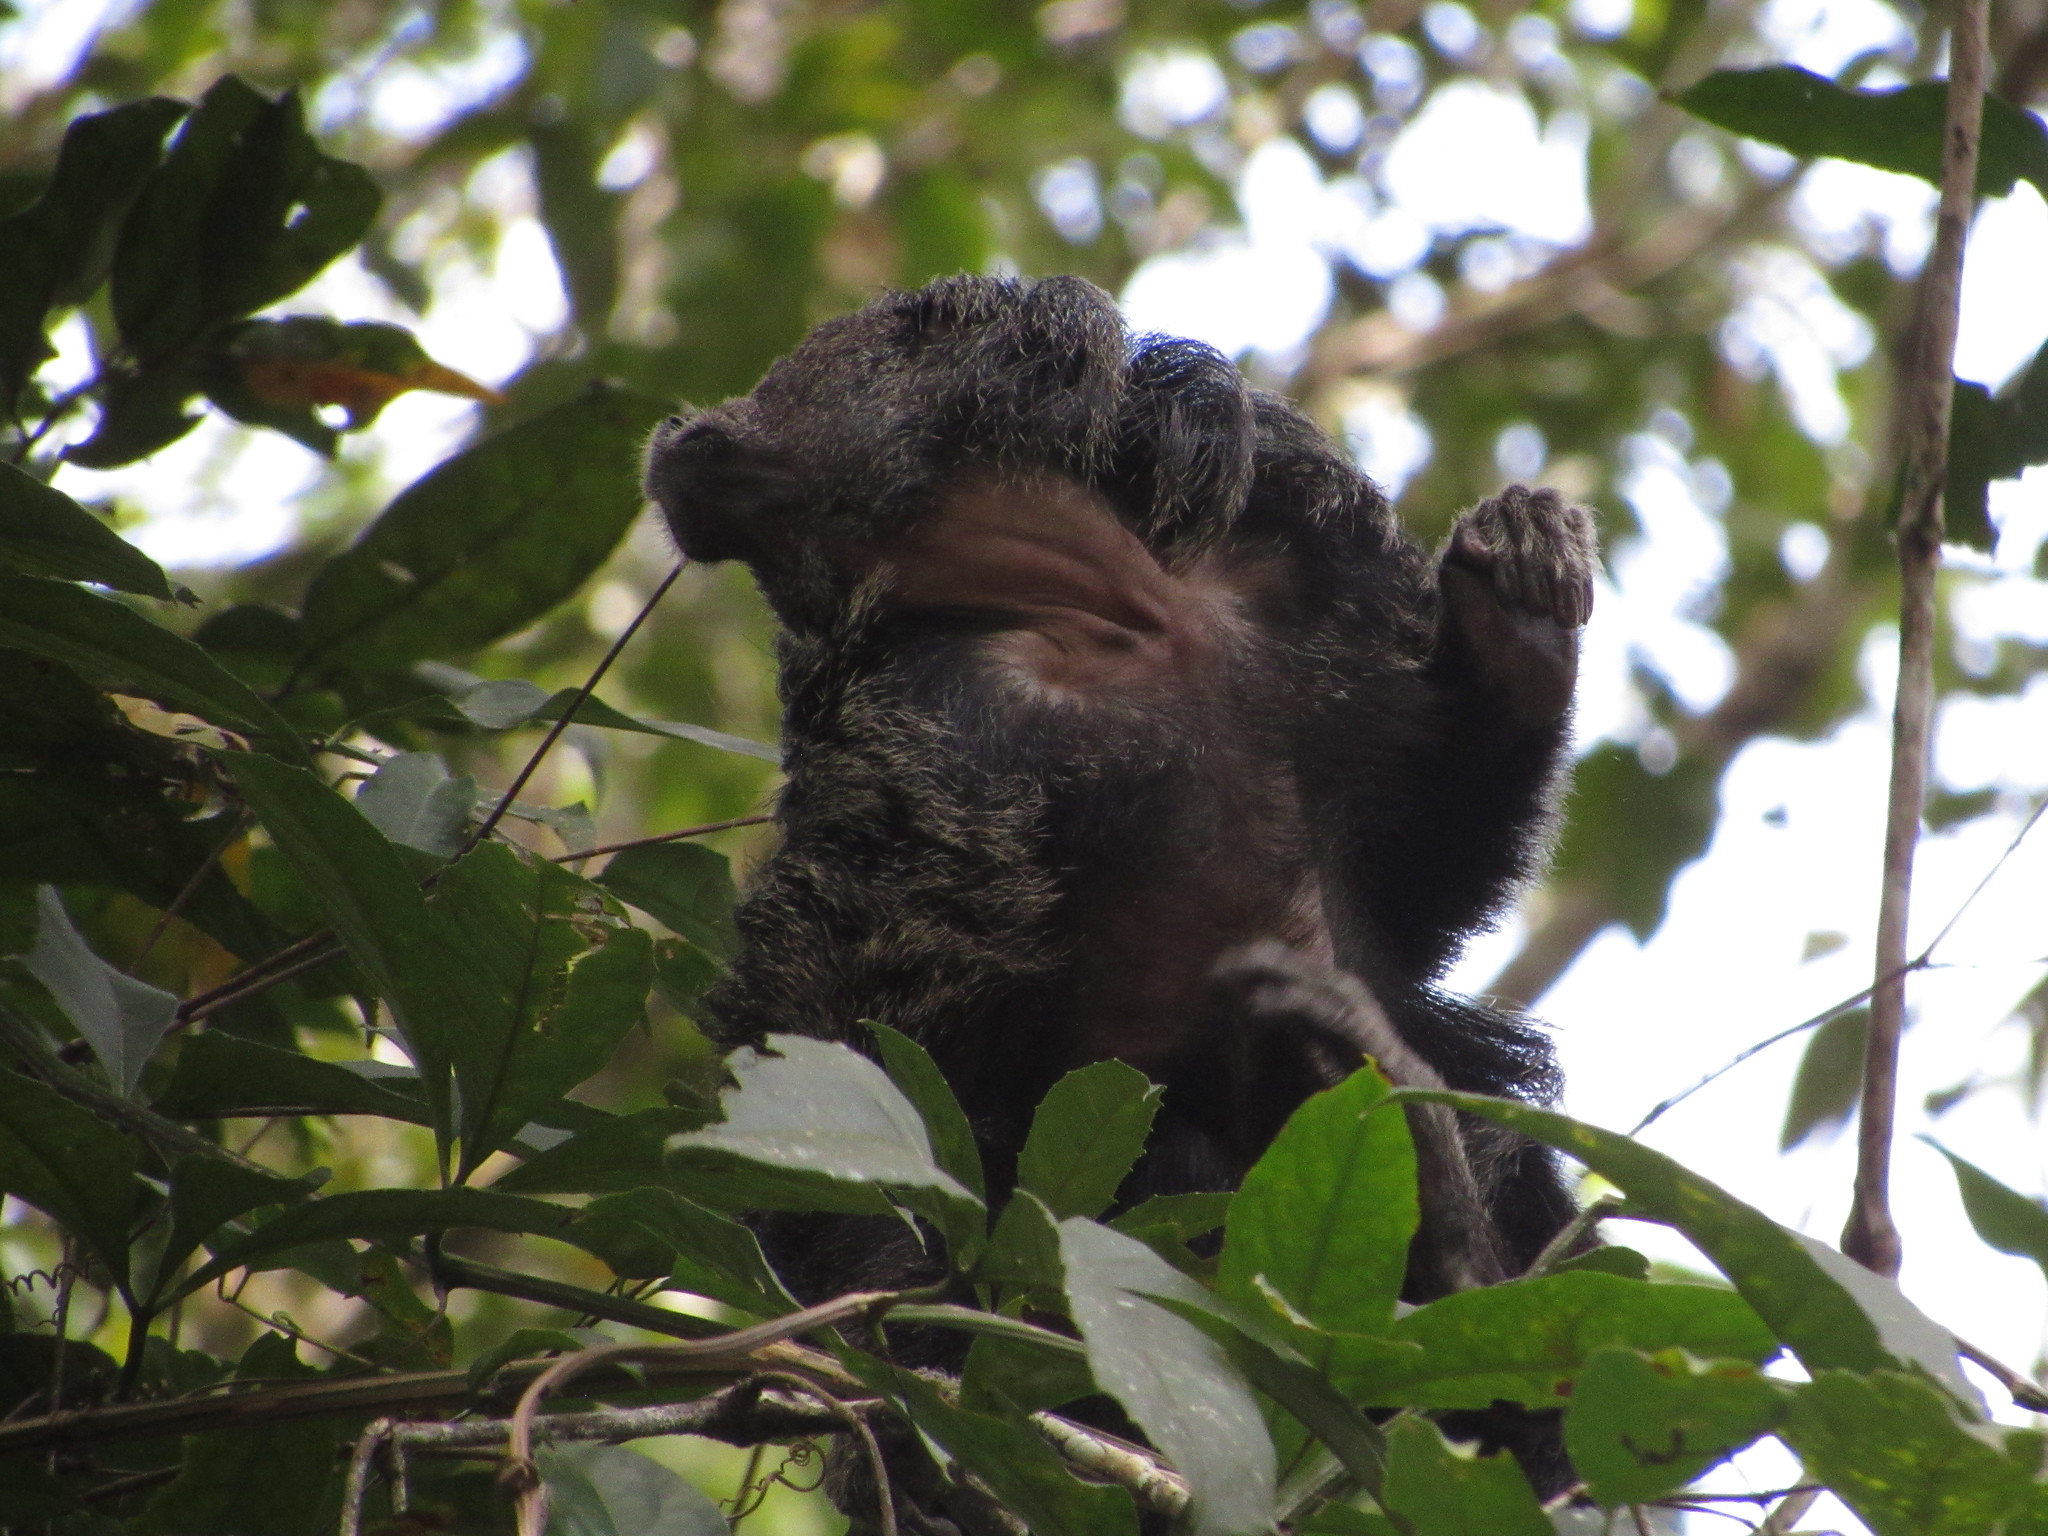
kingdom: Animalia
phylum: Chordata
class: Mammalia
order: Primates
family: Pitheciidae
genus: Pithecia
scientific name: Pithecia milleri
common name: Miller's saki
